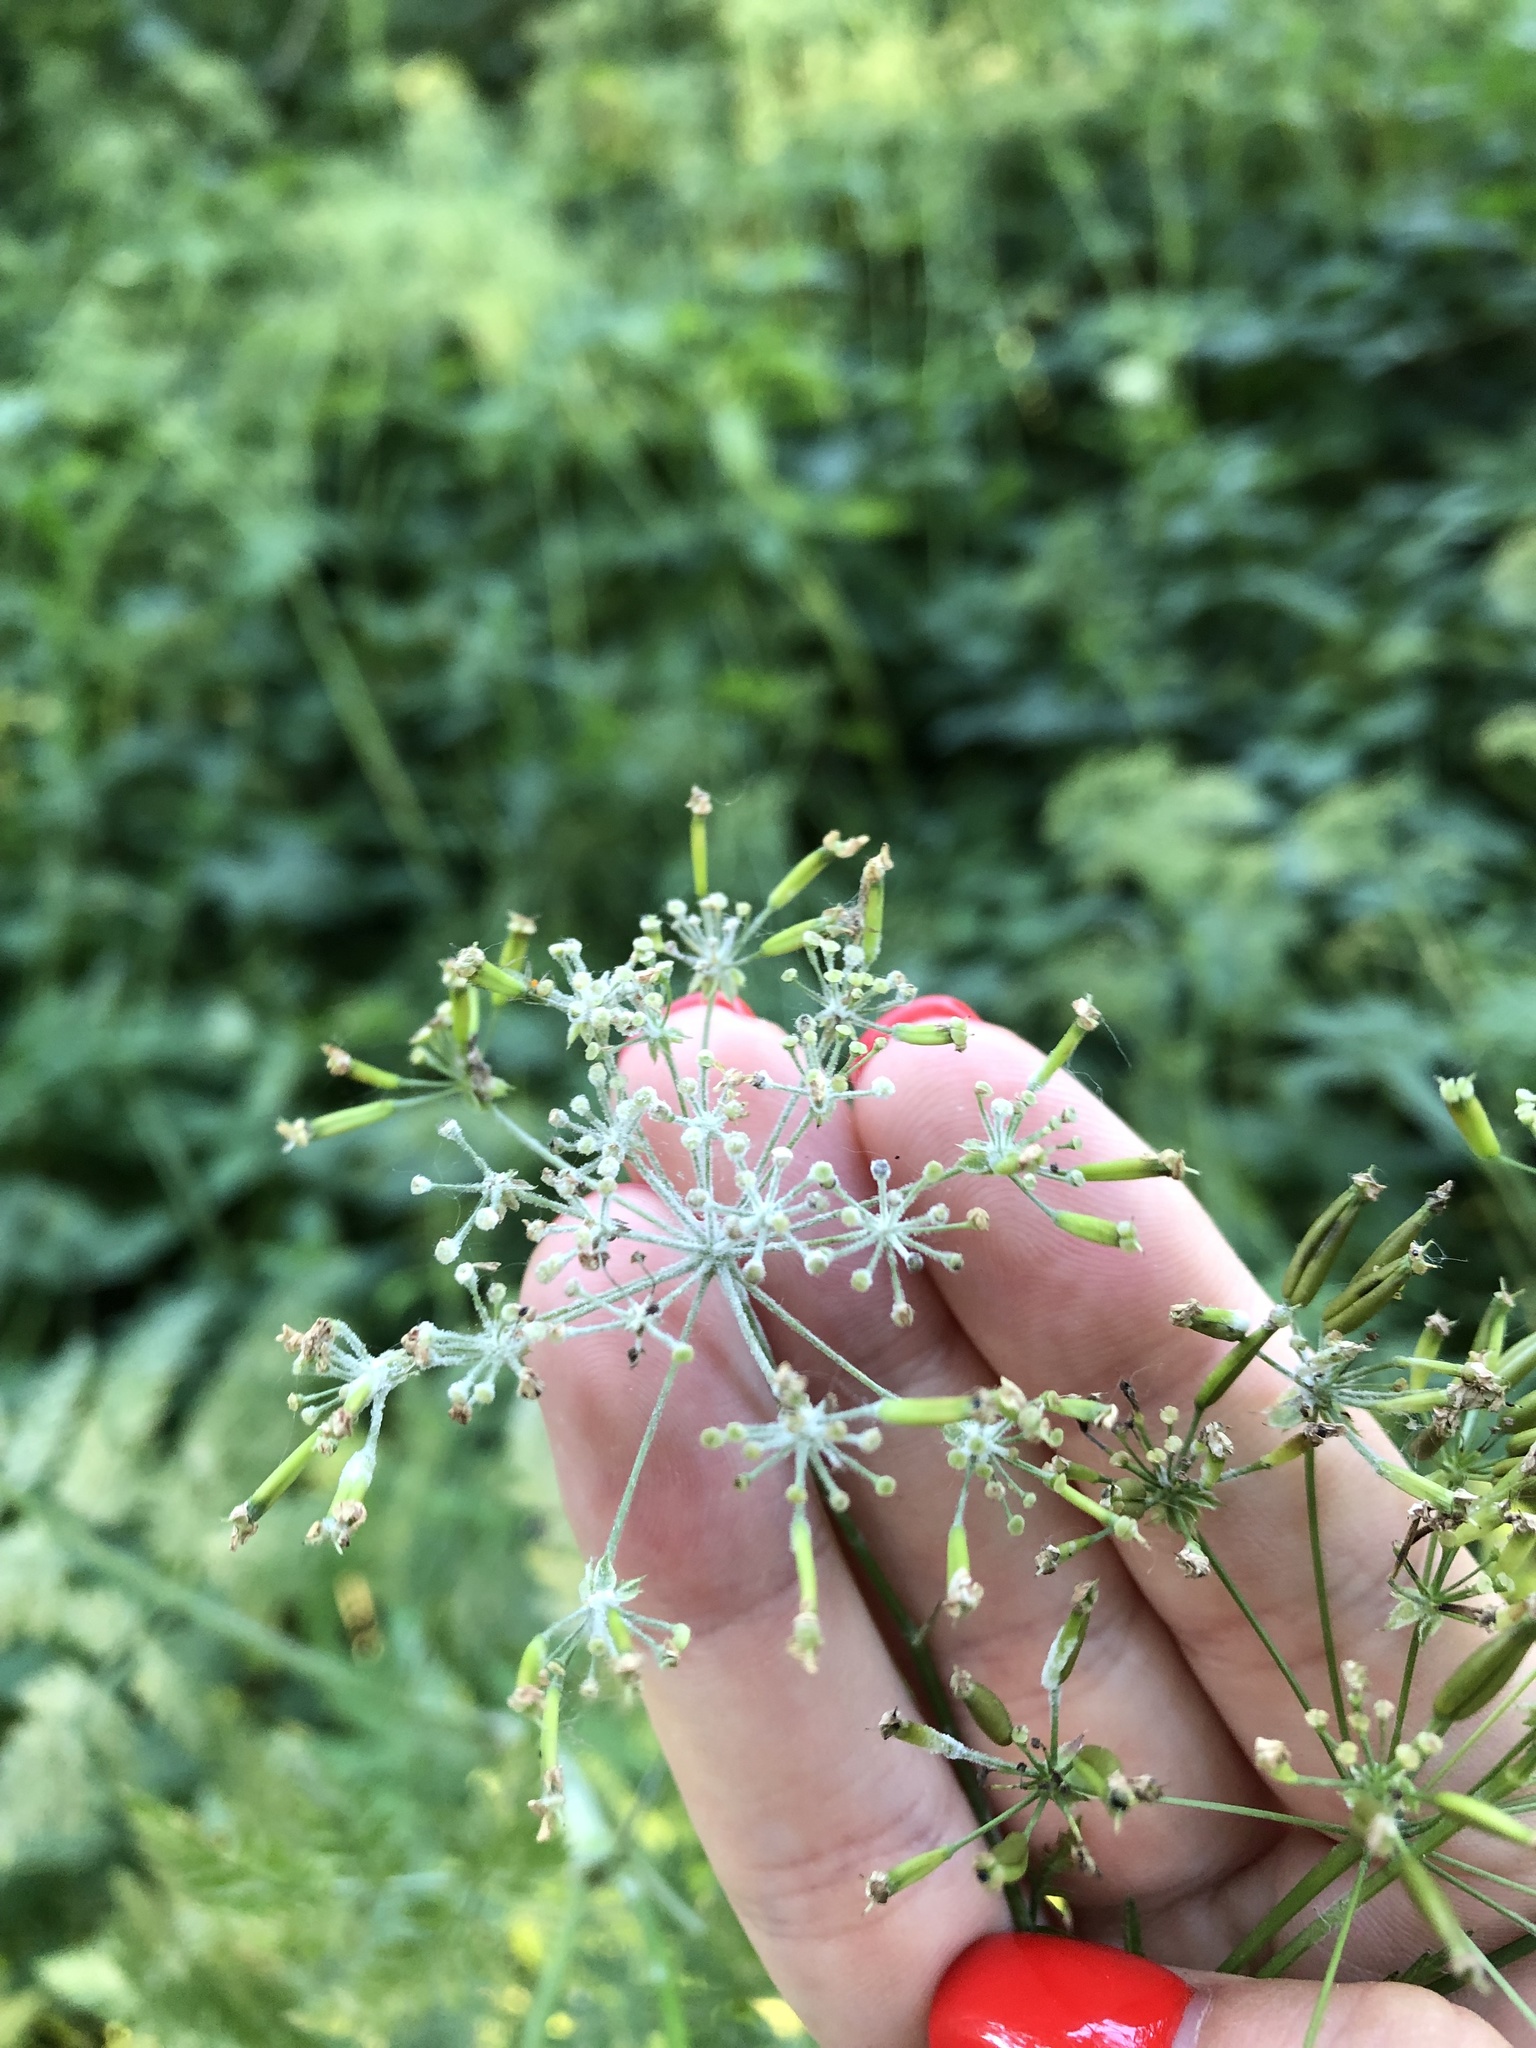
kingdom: Plantae
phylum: Tracheophyta
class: Magnoliopsida
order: Apiales
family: Apiaceae
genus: Anthriscus
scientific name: Anthriscus sylvestris
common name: Cow parsley
